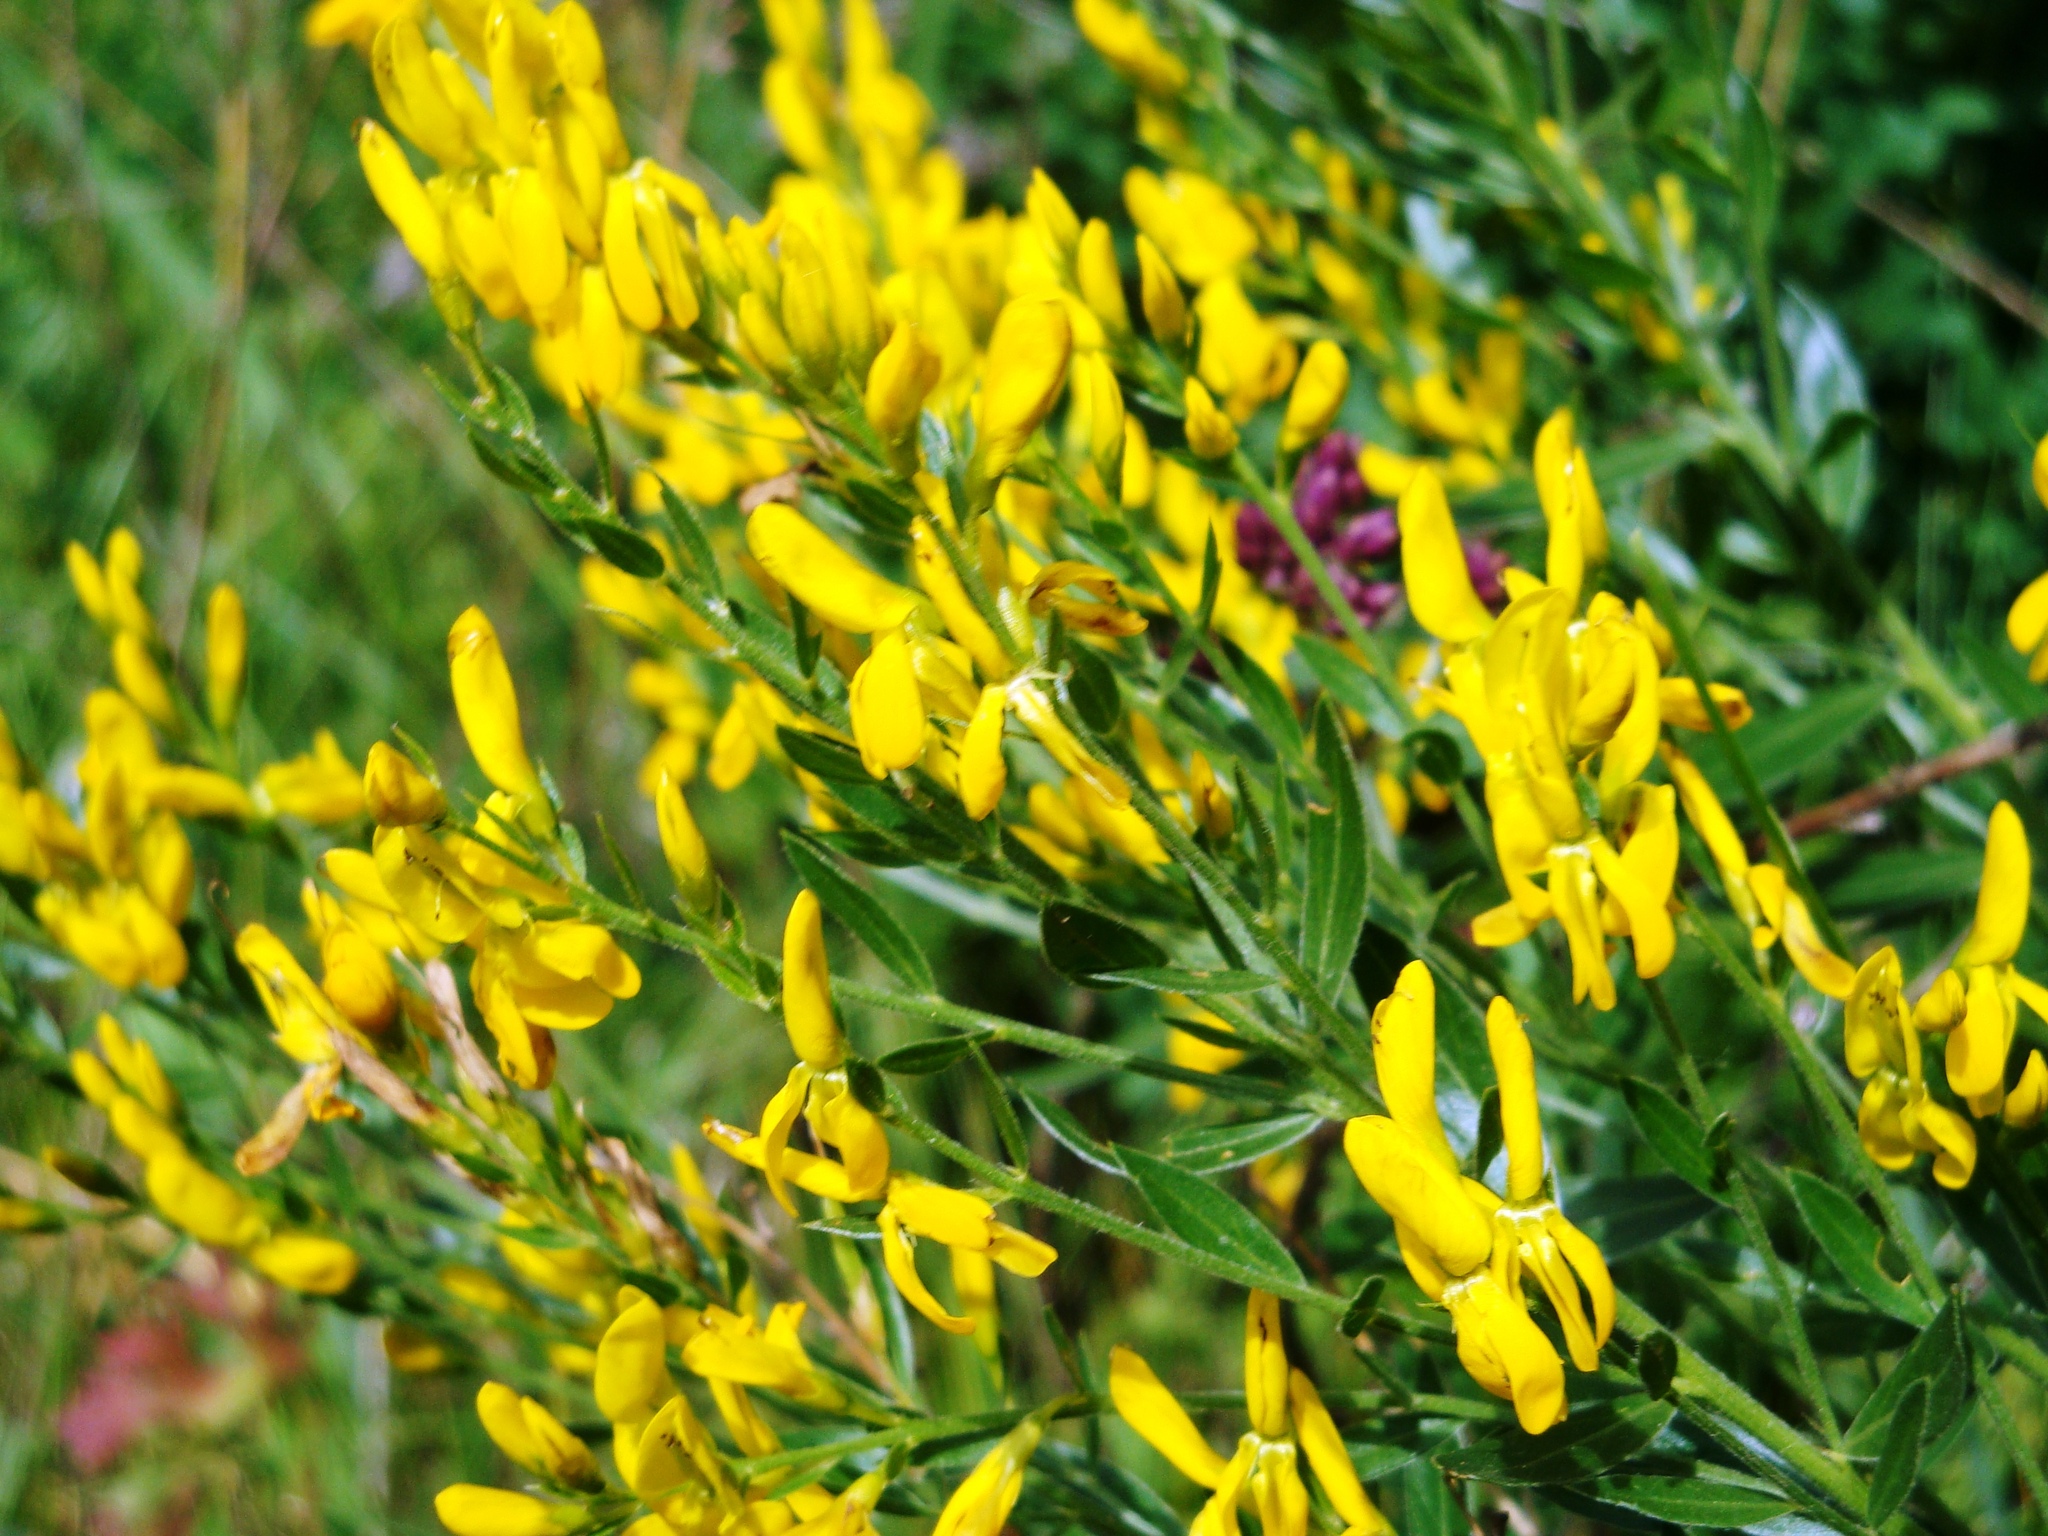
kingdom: Plantae
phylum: Tracheophyta
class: Magnoliopsida
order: Fabales
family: Fabaceae
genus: Genista
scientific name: Genista tinctoria
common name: Dyer's greenweed
